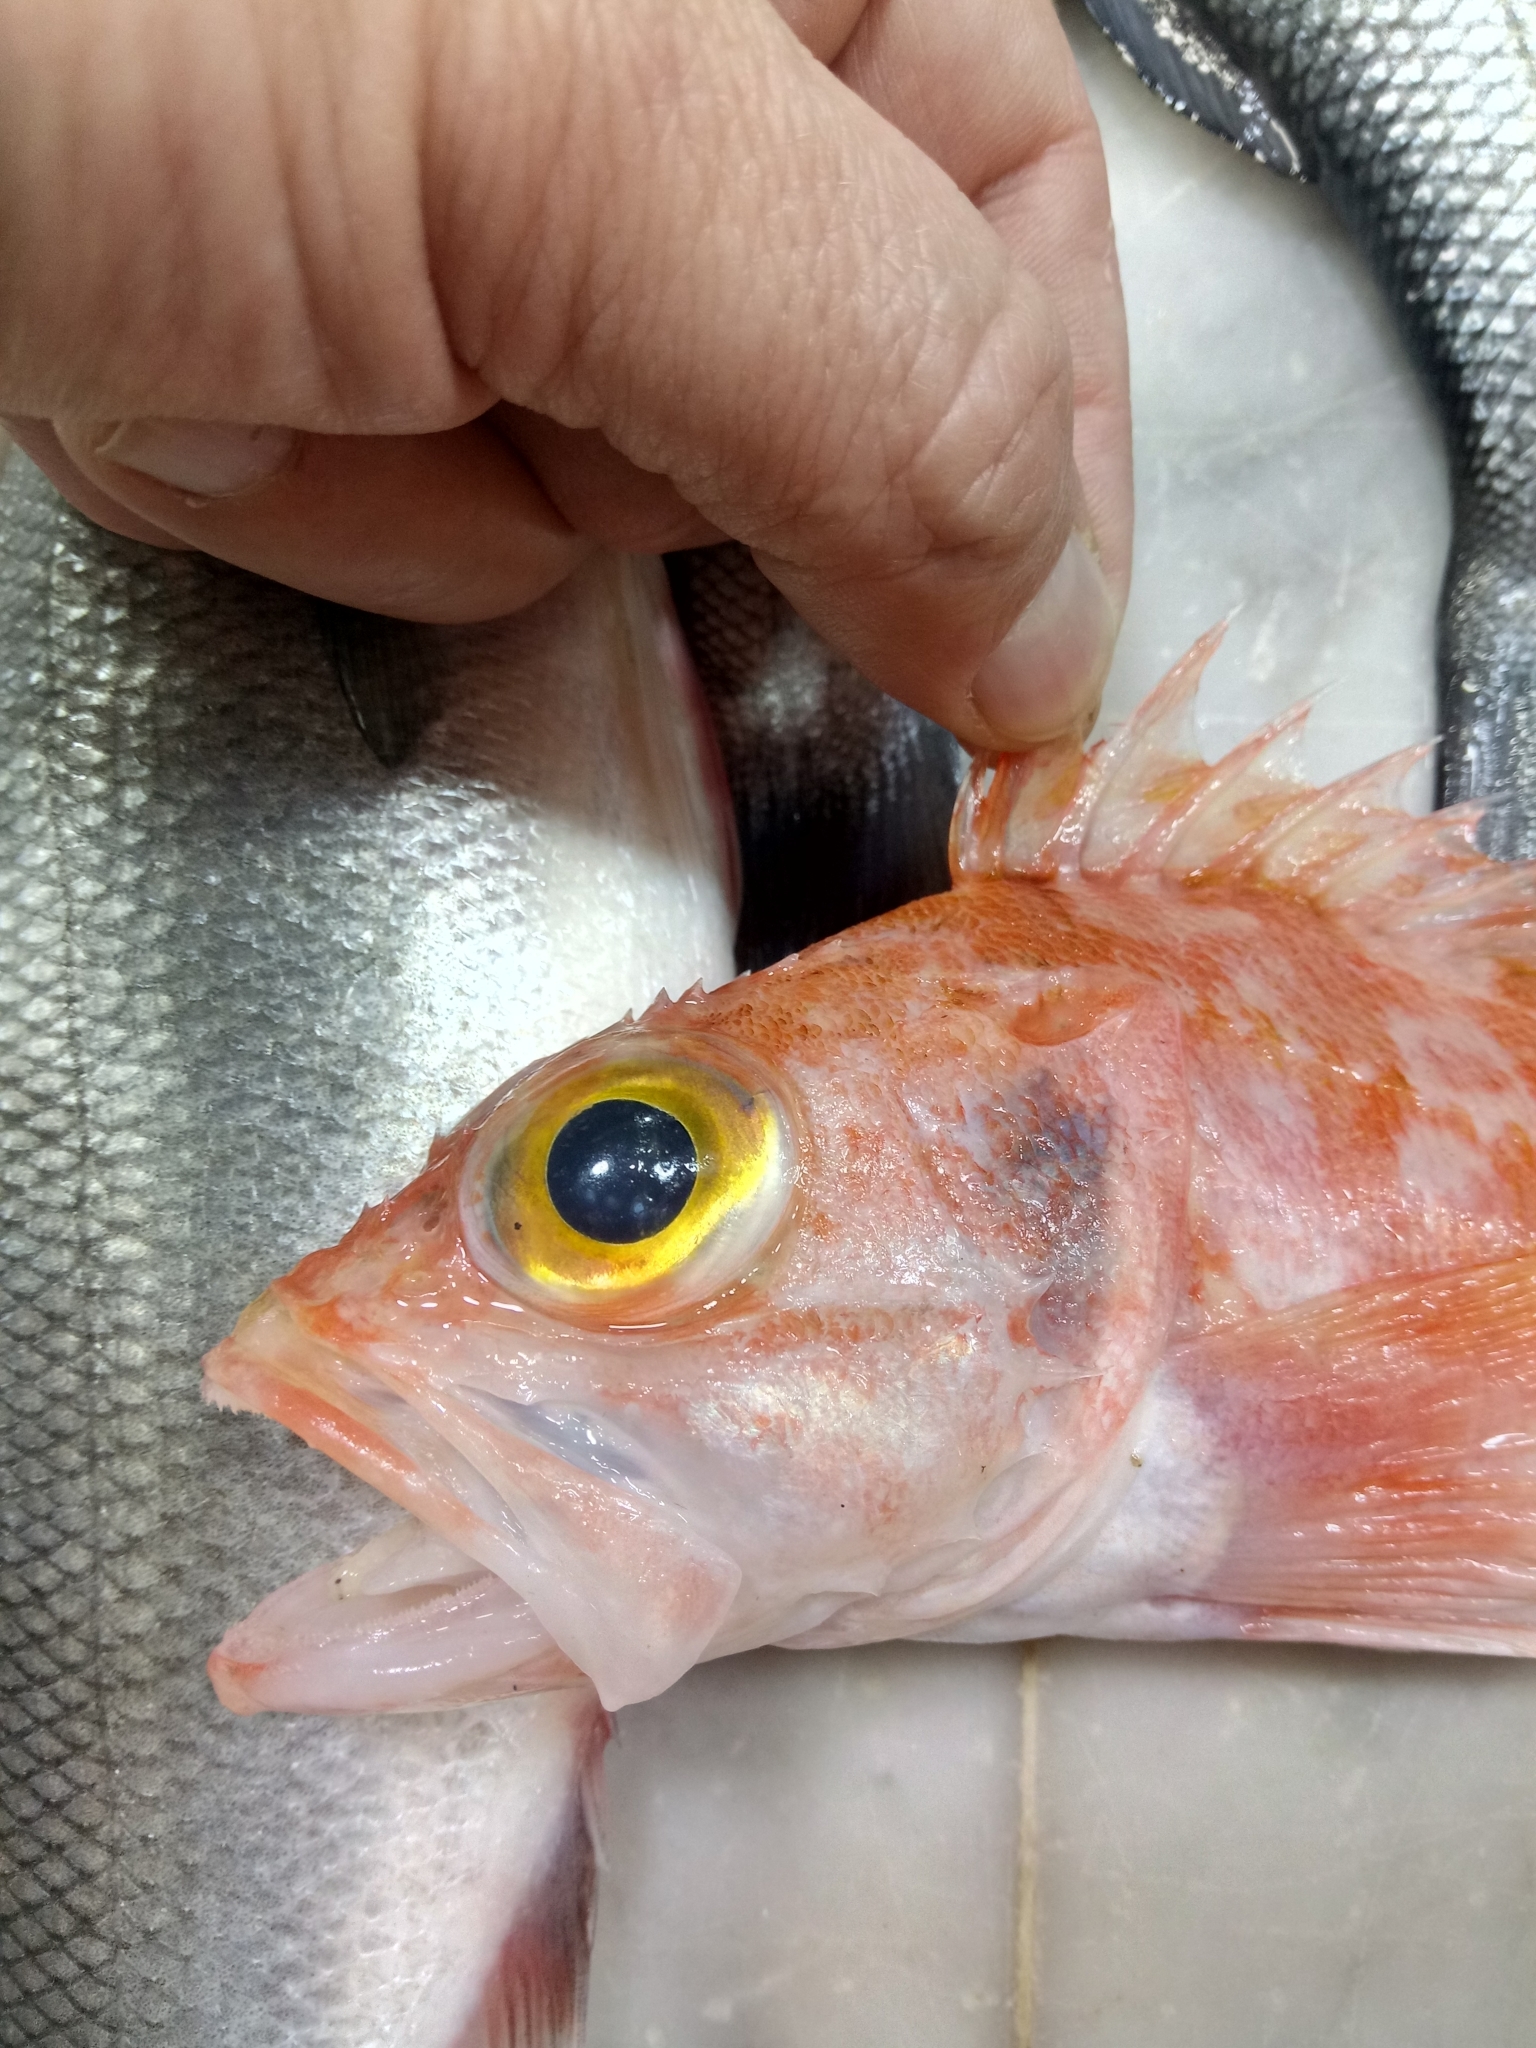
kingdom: Animalia
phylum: Chordata
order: Scorpaeniformes
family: Sebastidae
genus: Helicolenus
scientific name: Helicolenus dactylopterus
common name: Blackbelly rosefish
